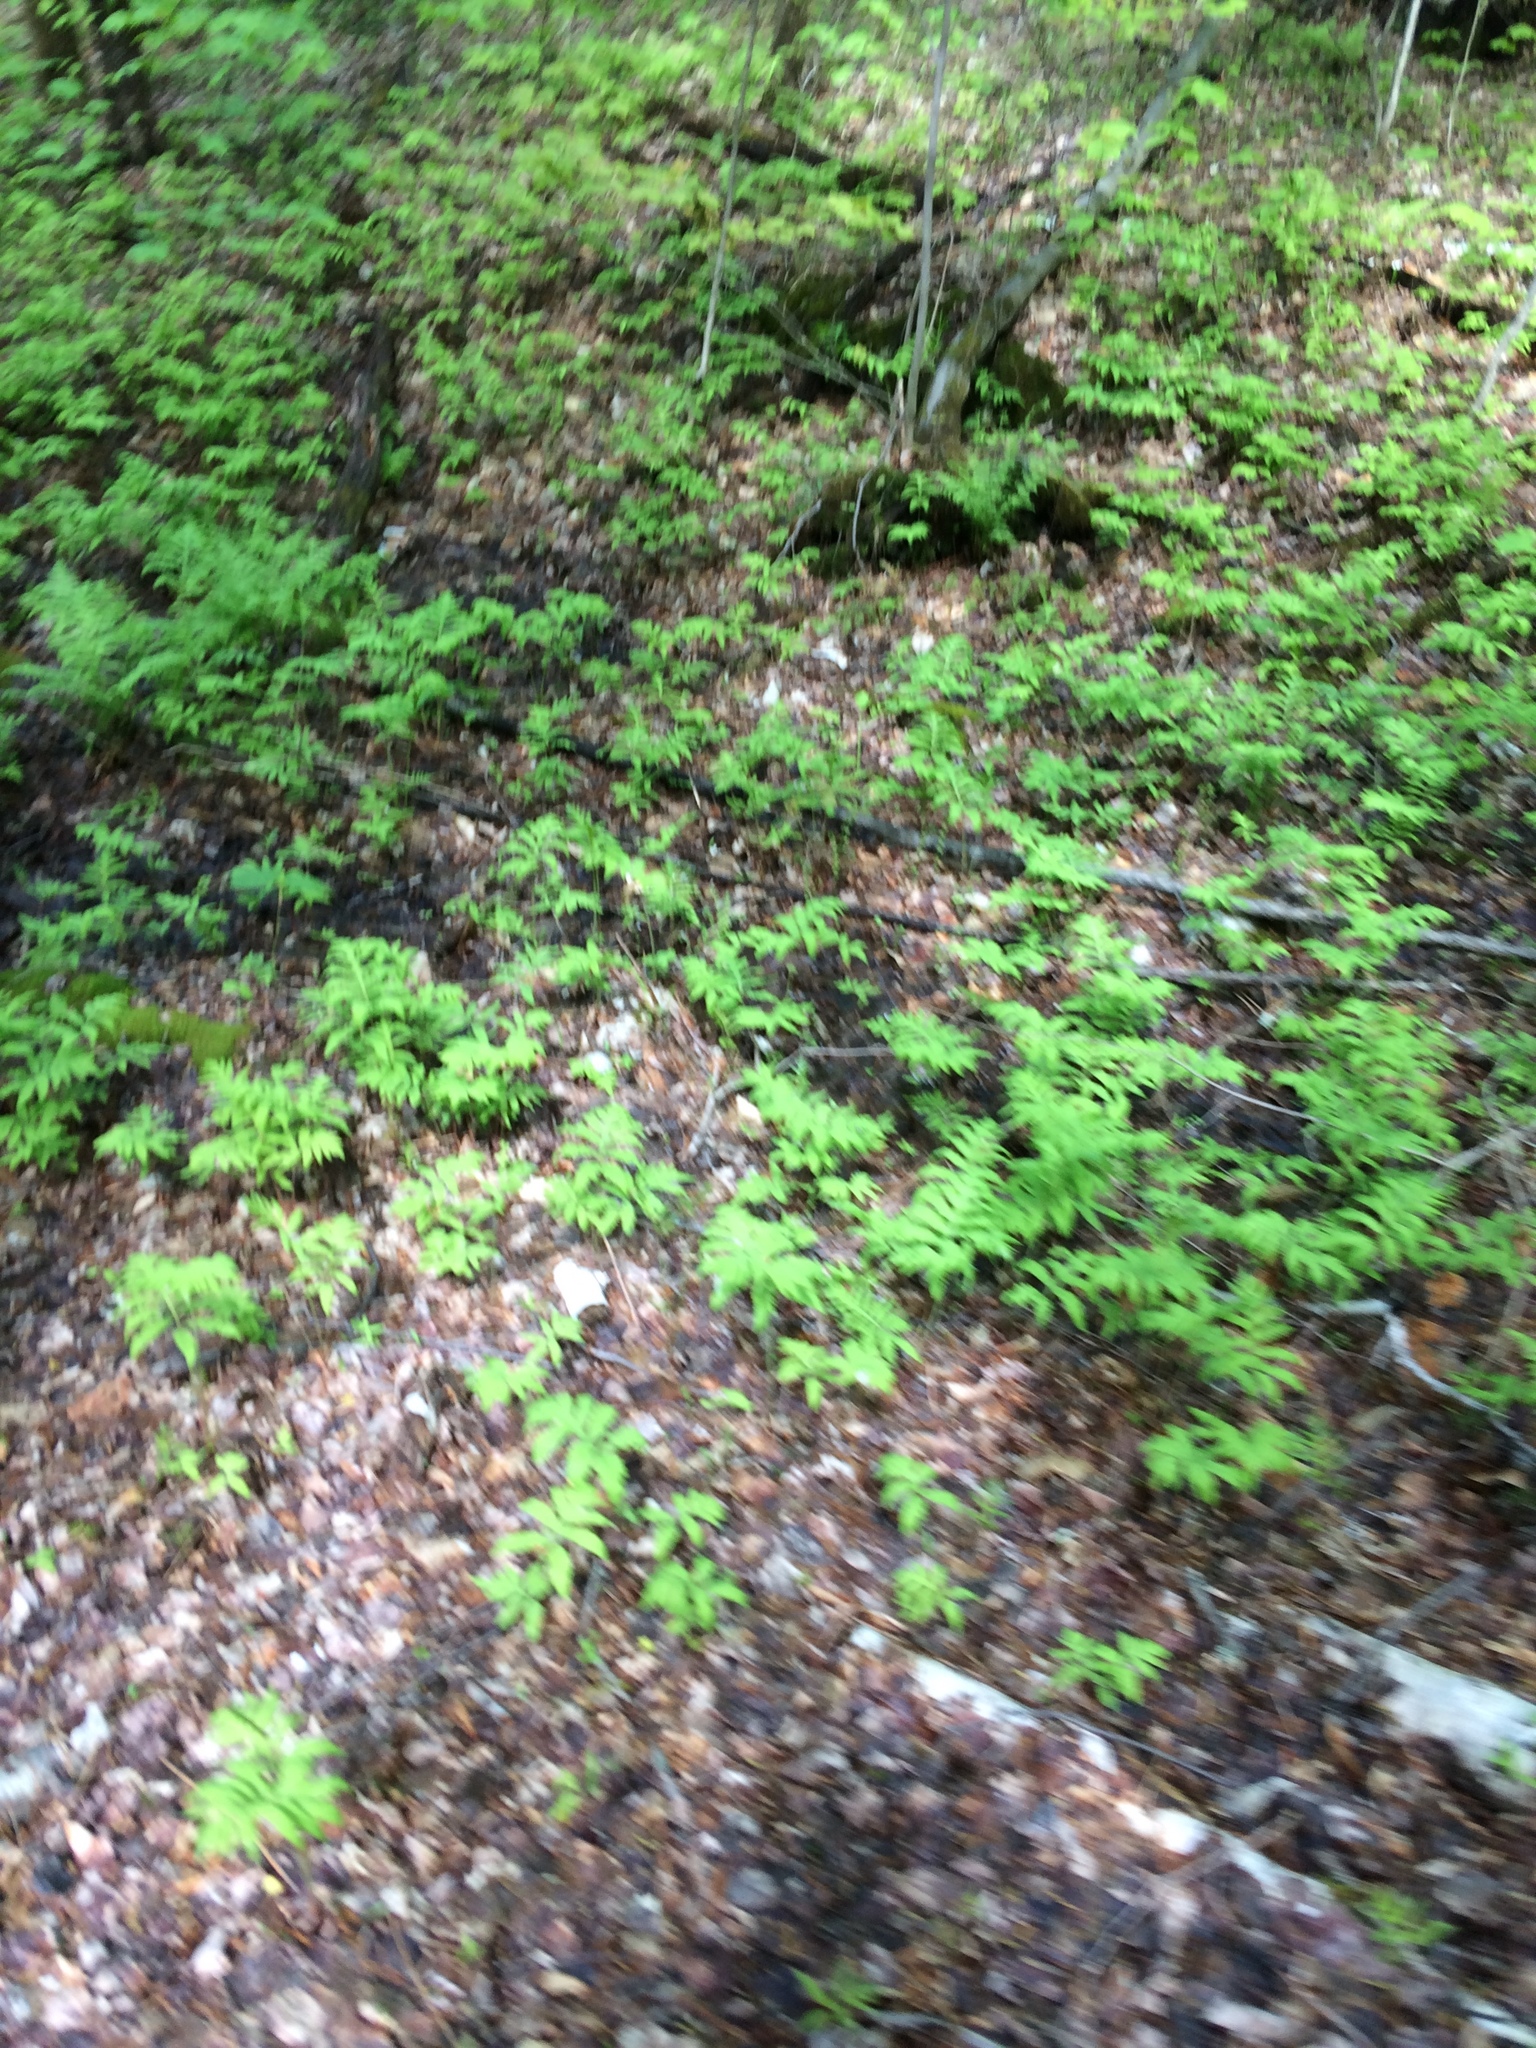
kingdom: Plantae
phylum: Tracheophyta
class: Polypodiopsida
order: Polypodiales
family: Onocleaceae
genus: Onoclea
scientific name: Onoclea sensibilis
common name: Sensitive fern
